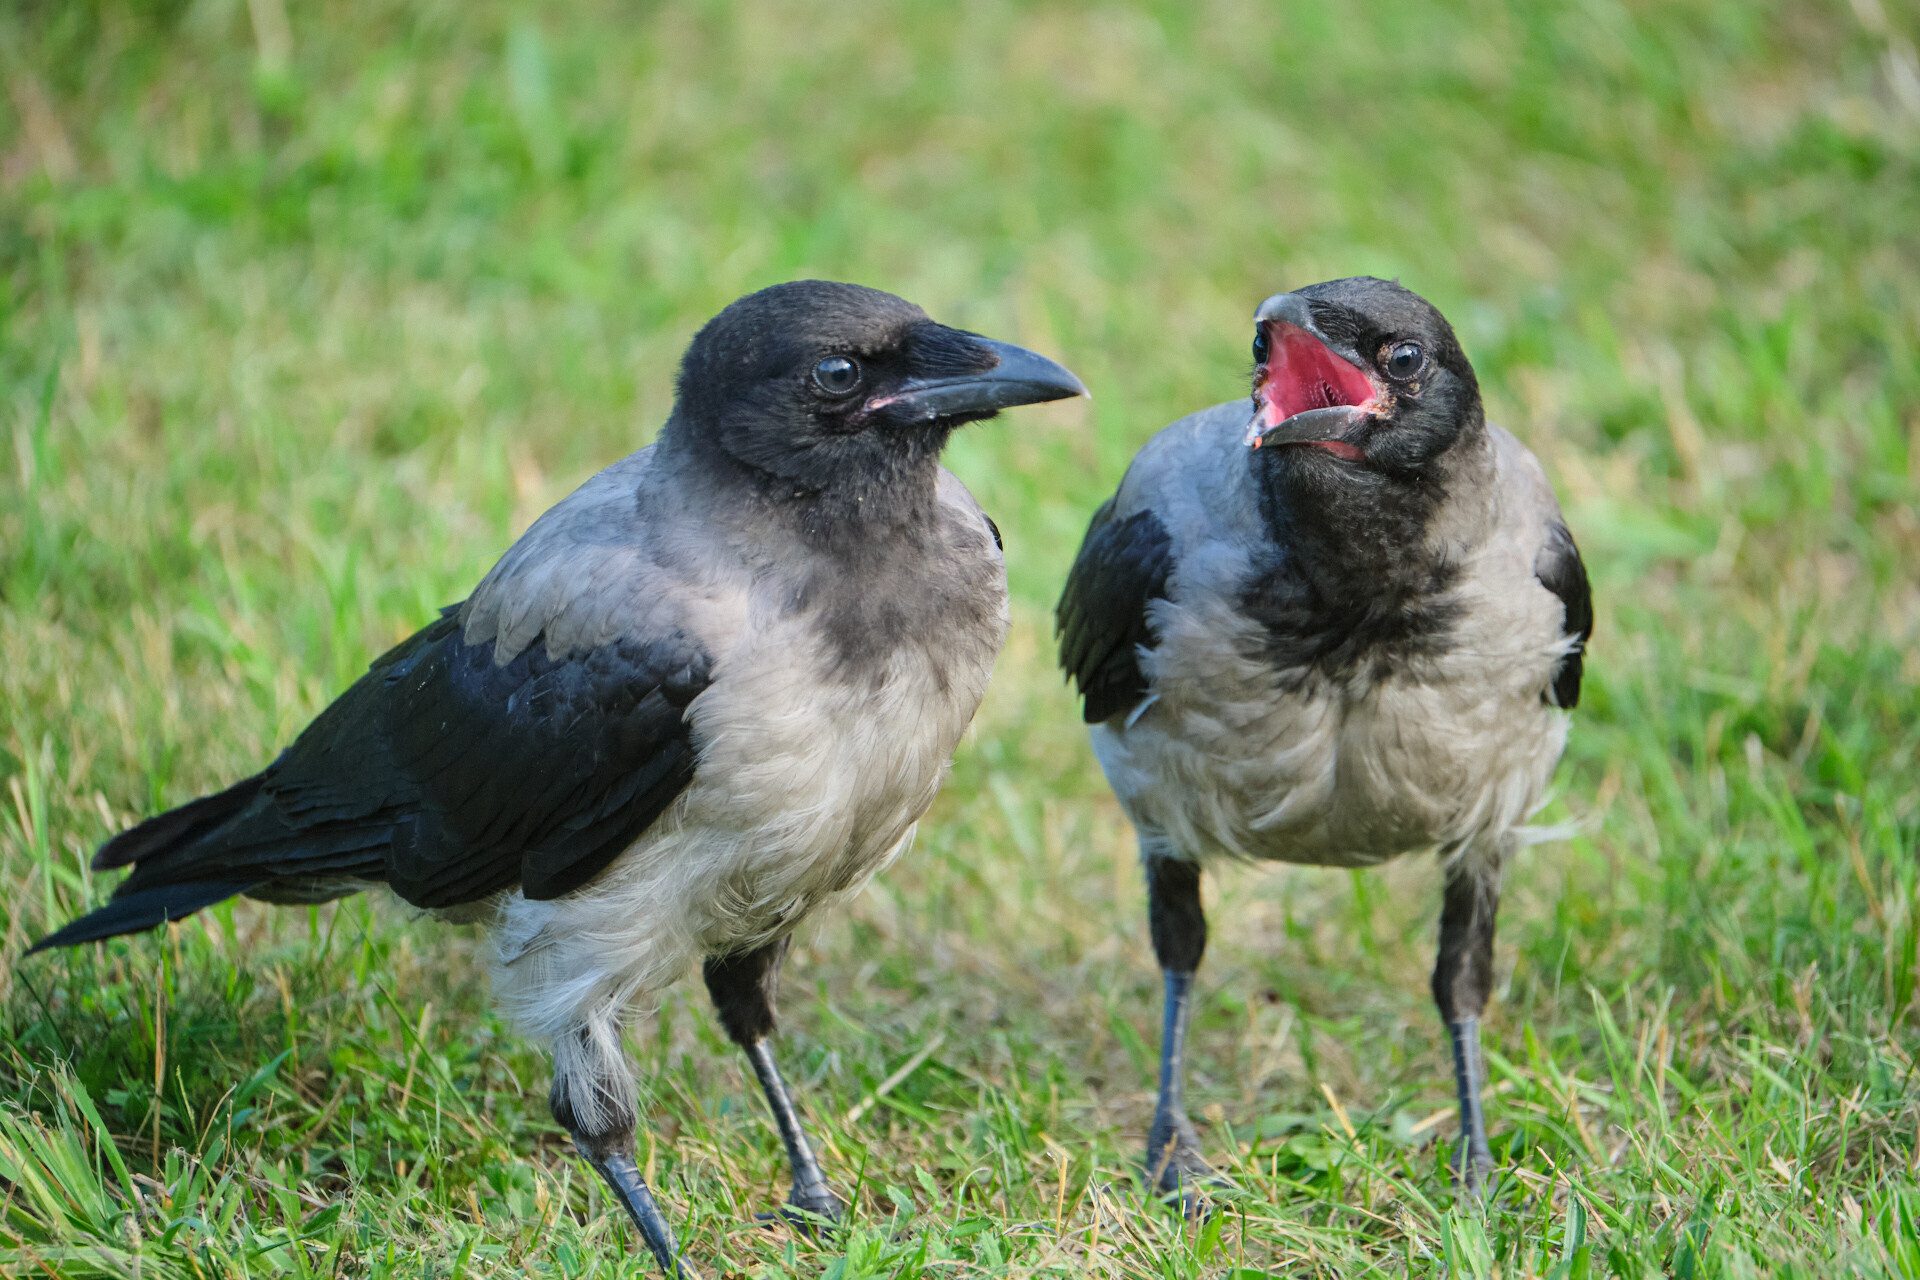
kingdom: Animalia
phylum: Chordata
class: Aves
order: Passeriformes
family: Corvidae
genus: Corvus
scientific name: Corvus cornix
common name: Hooded crow
